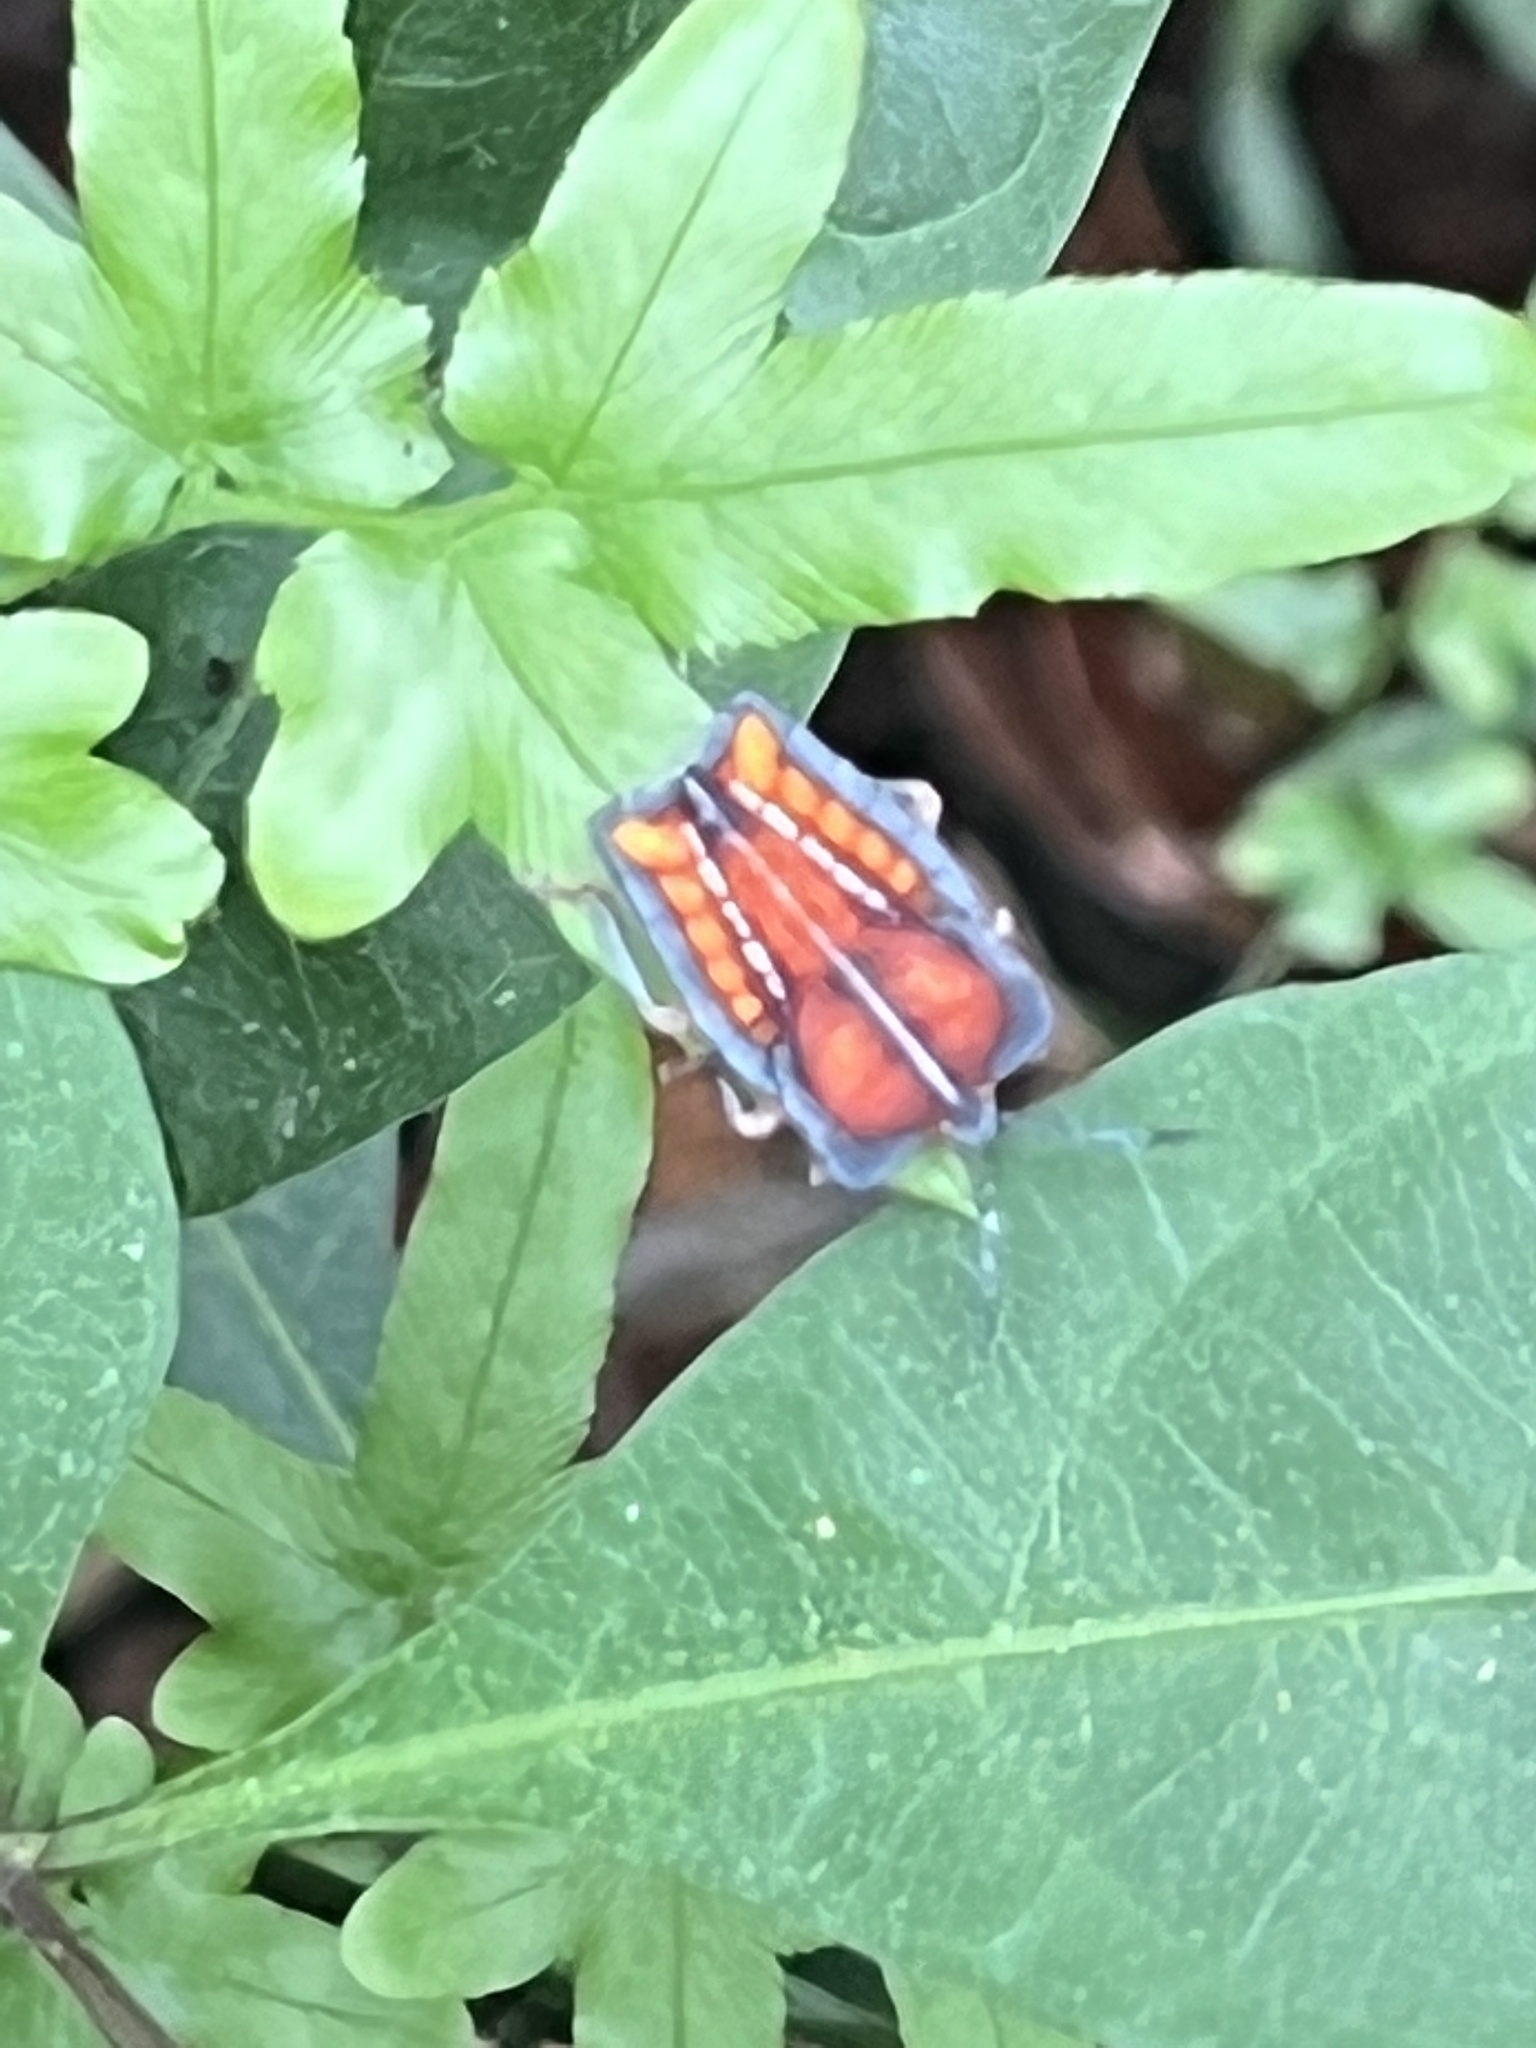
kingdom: Animalia
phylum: Arthropoda
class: Insecta
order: Hemiptera
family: Tessaratomidae
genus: Tessaratoma
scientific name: Tessaratoma papillosa
